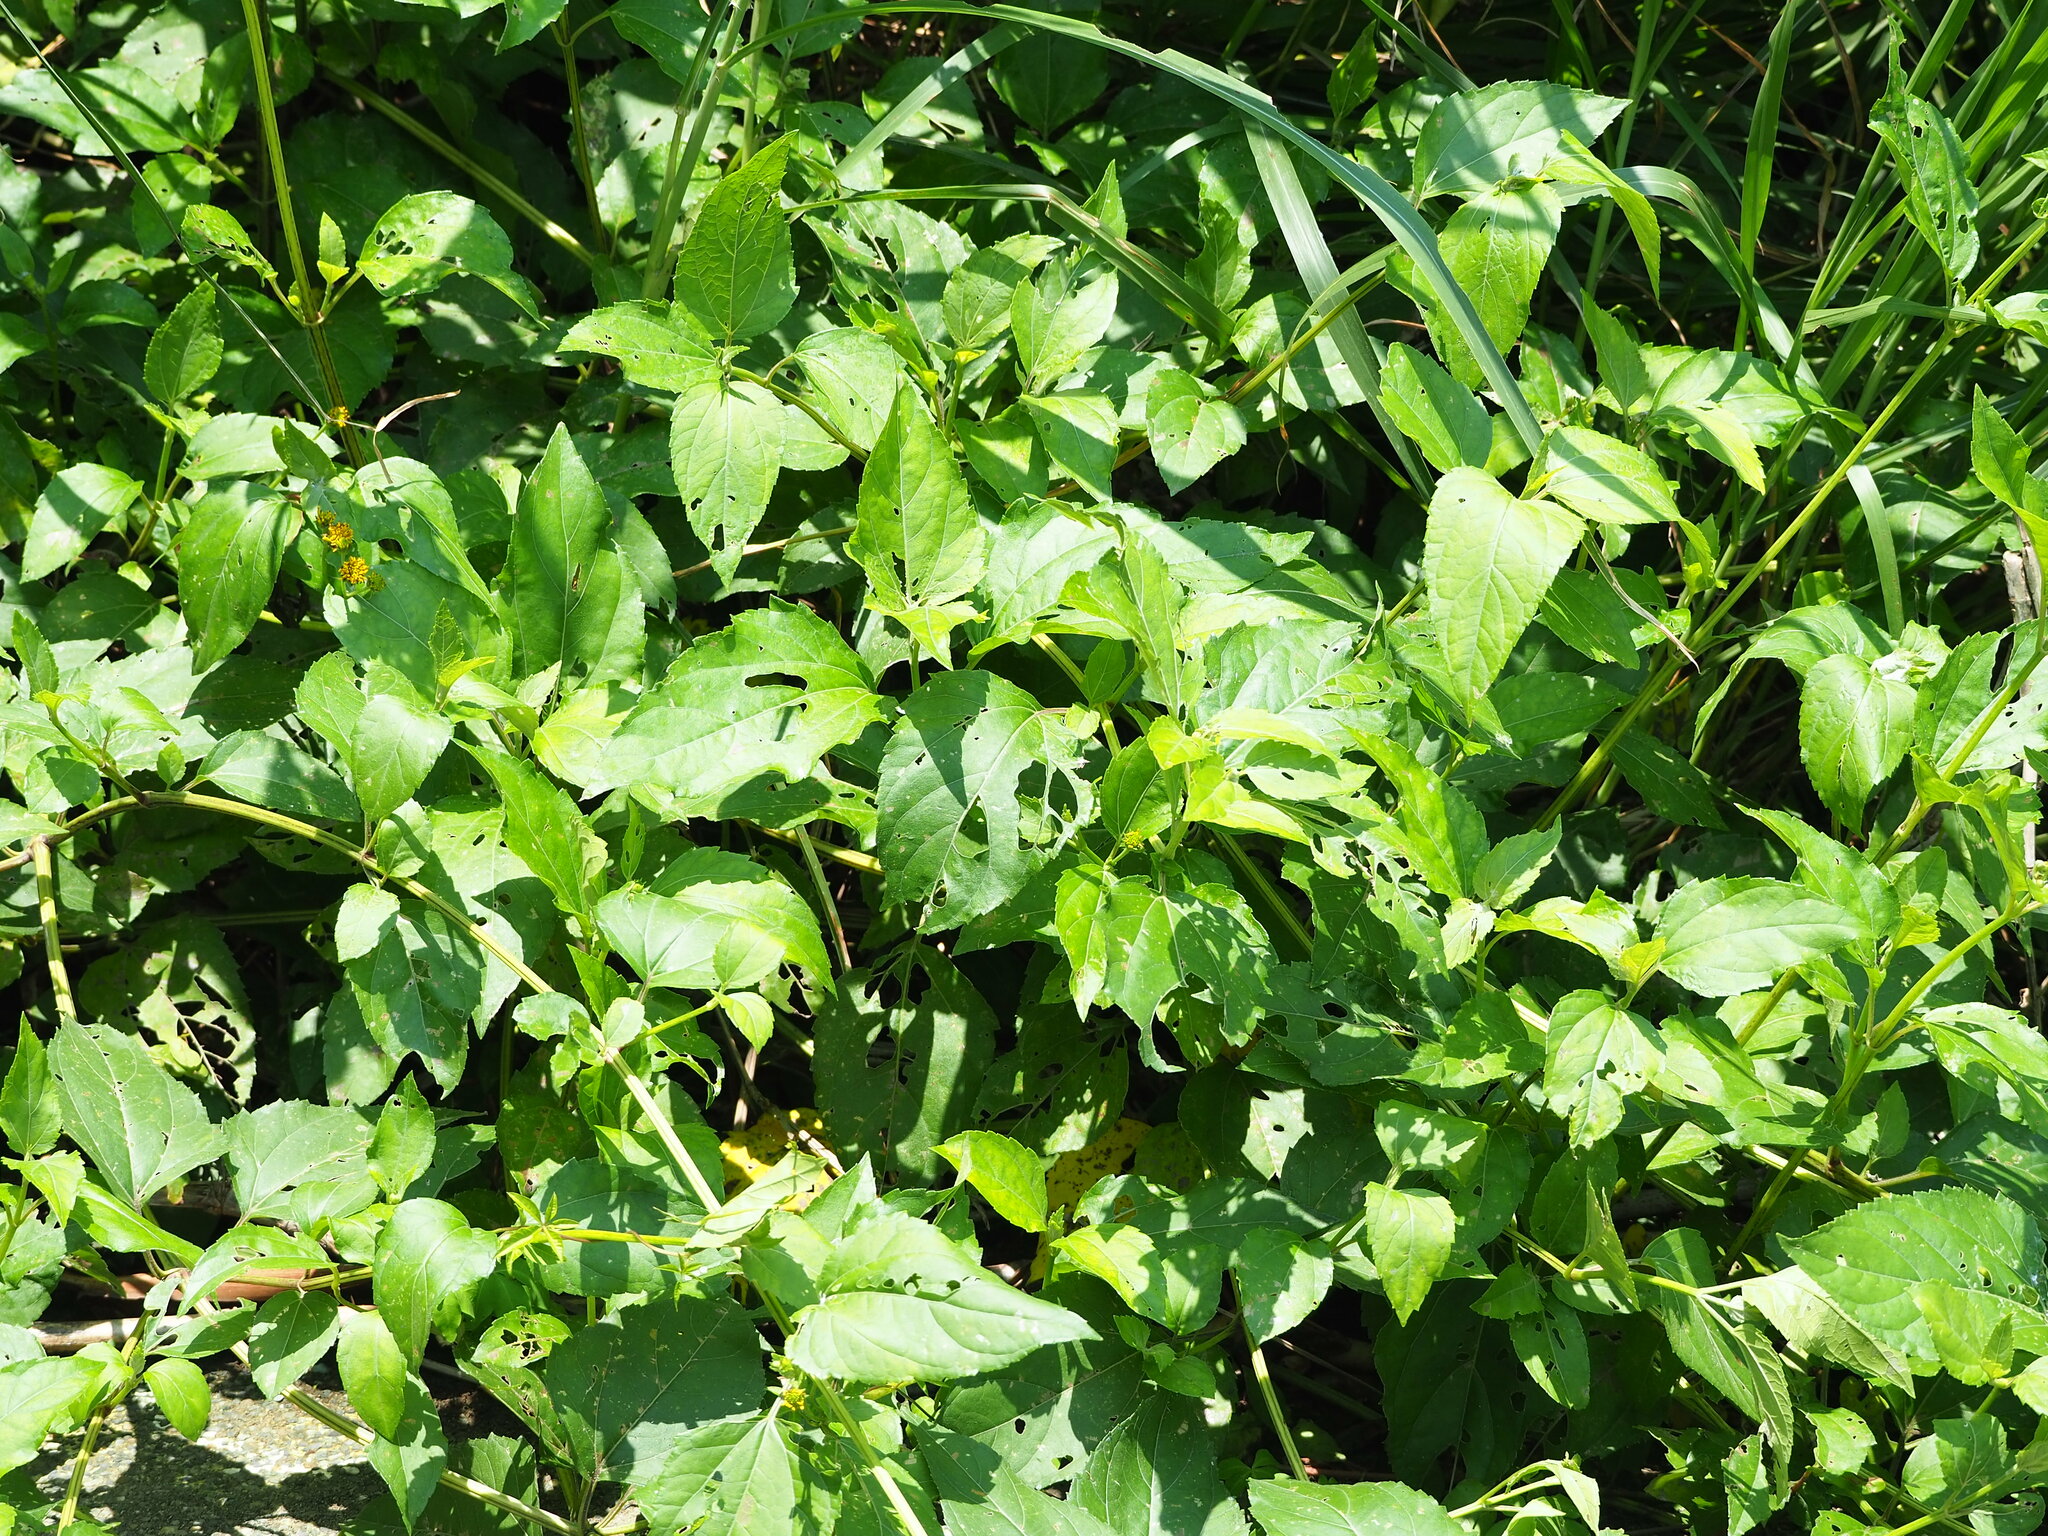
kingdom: Plantae
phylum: Tracheophyta
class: Magnoliopsida
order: Asterales
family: Asteraceae
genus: Wollastonia
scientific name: Wollastonia biflora
